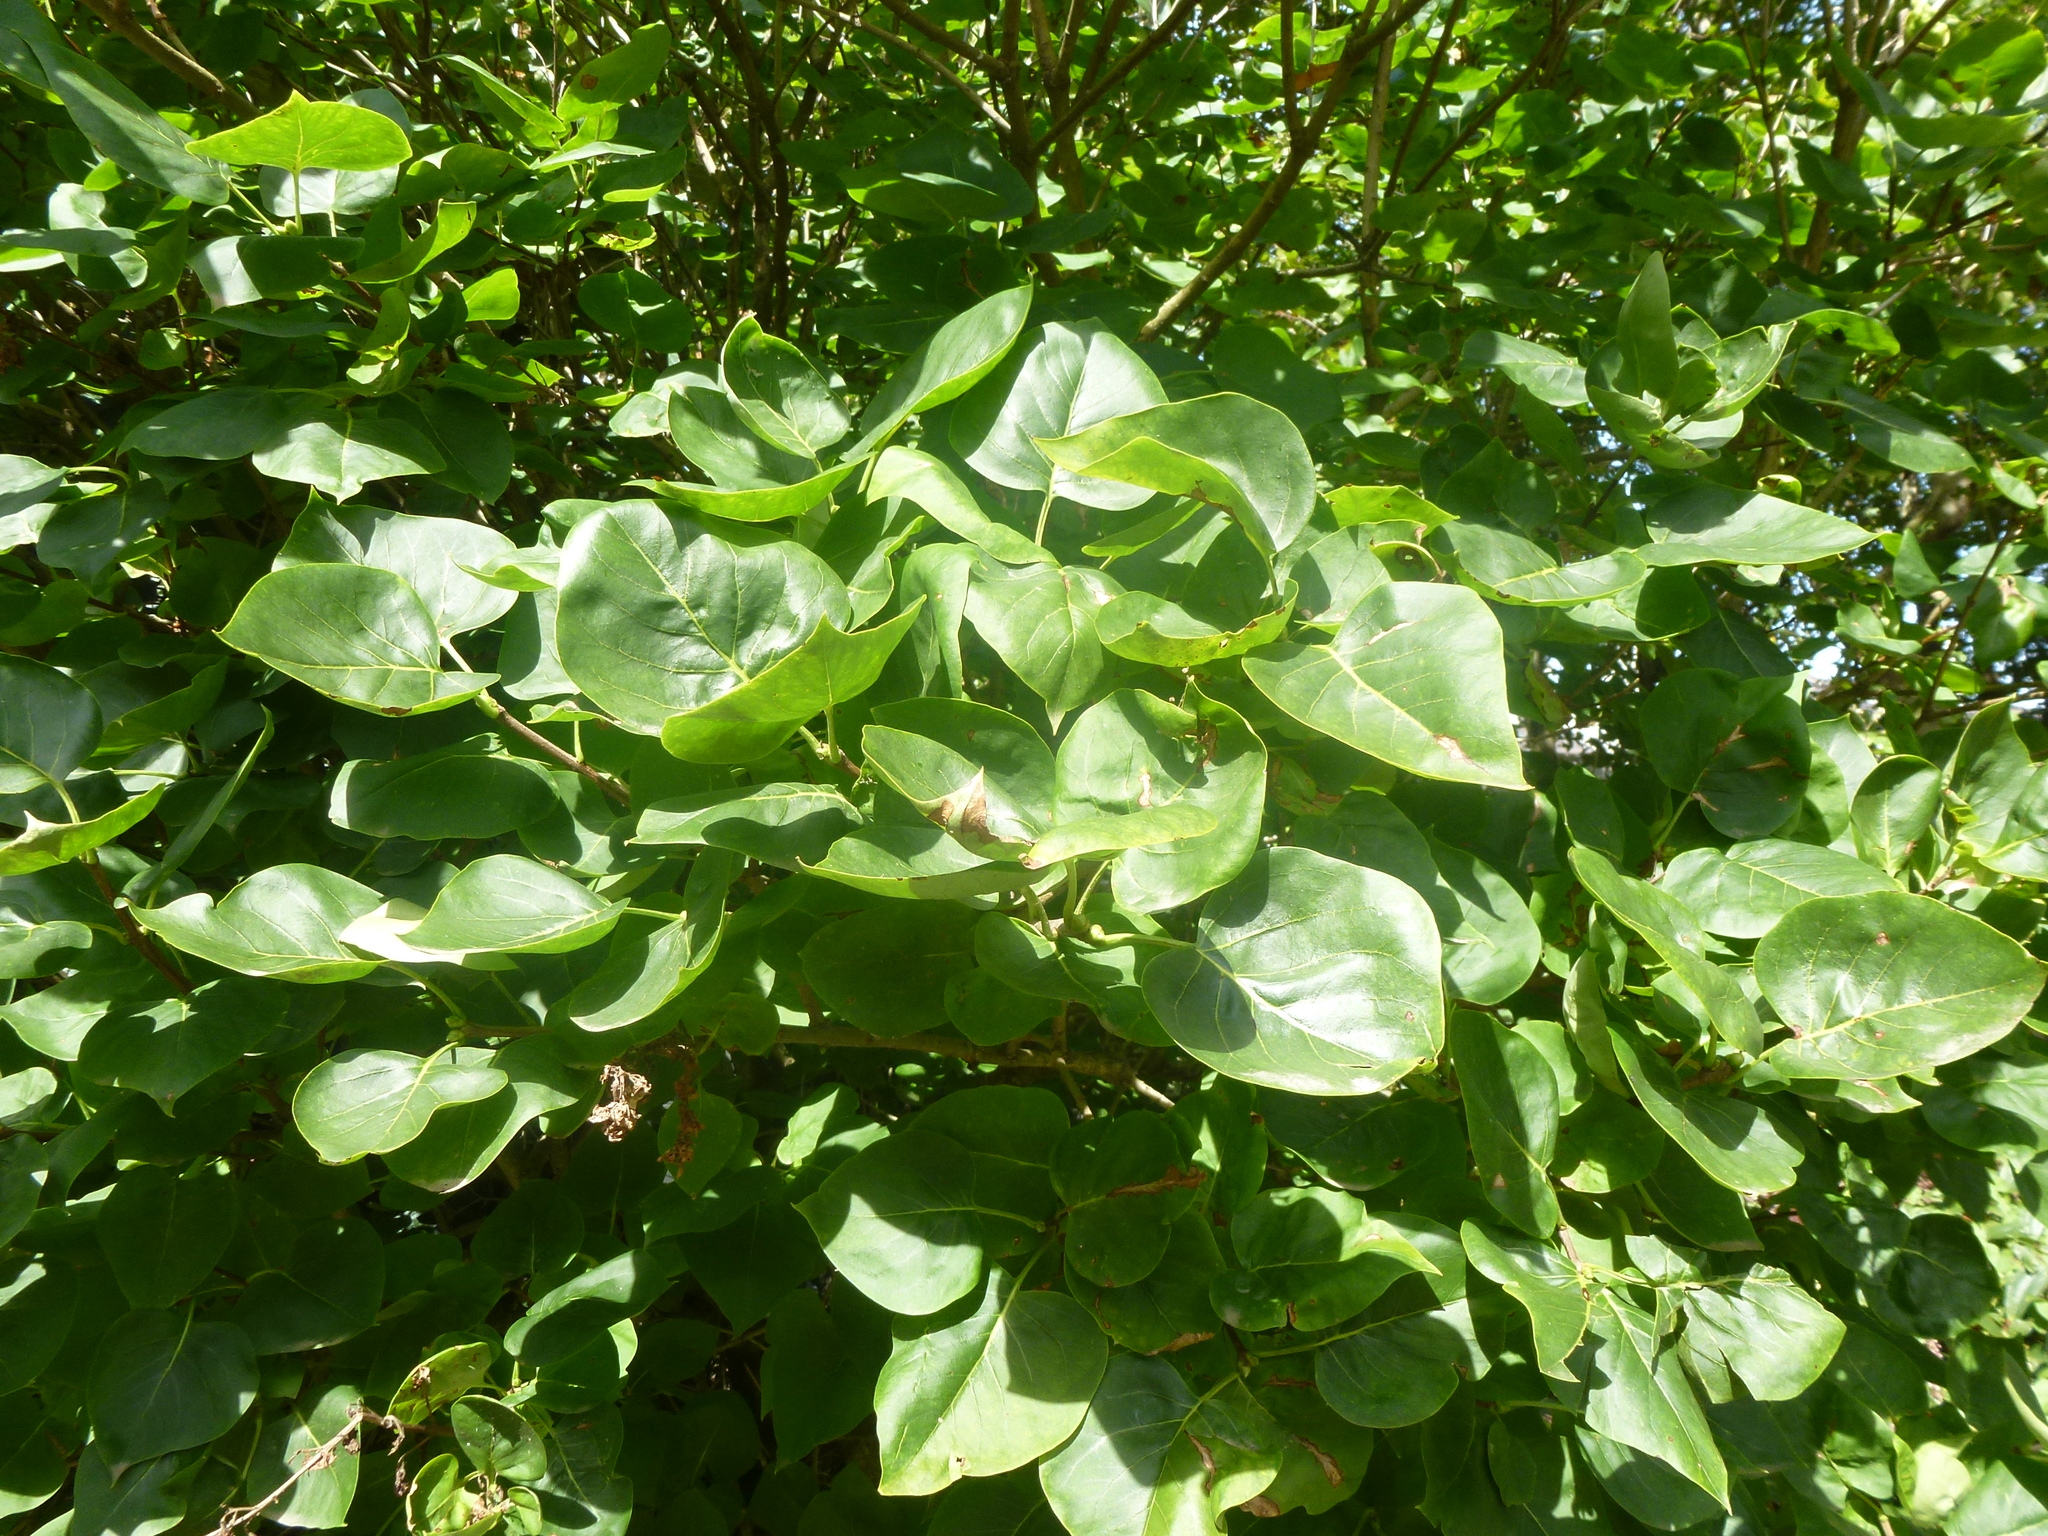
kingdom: Plantae
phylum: Tracheophyta
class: Magnoliopsida
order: Lamiales
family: Oleaceae
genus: Syringa
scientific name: Syringa vulgaris
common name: Common lilac
